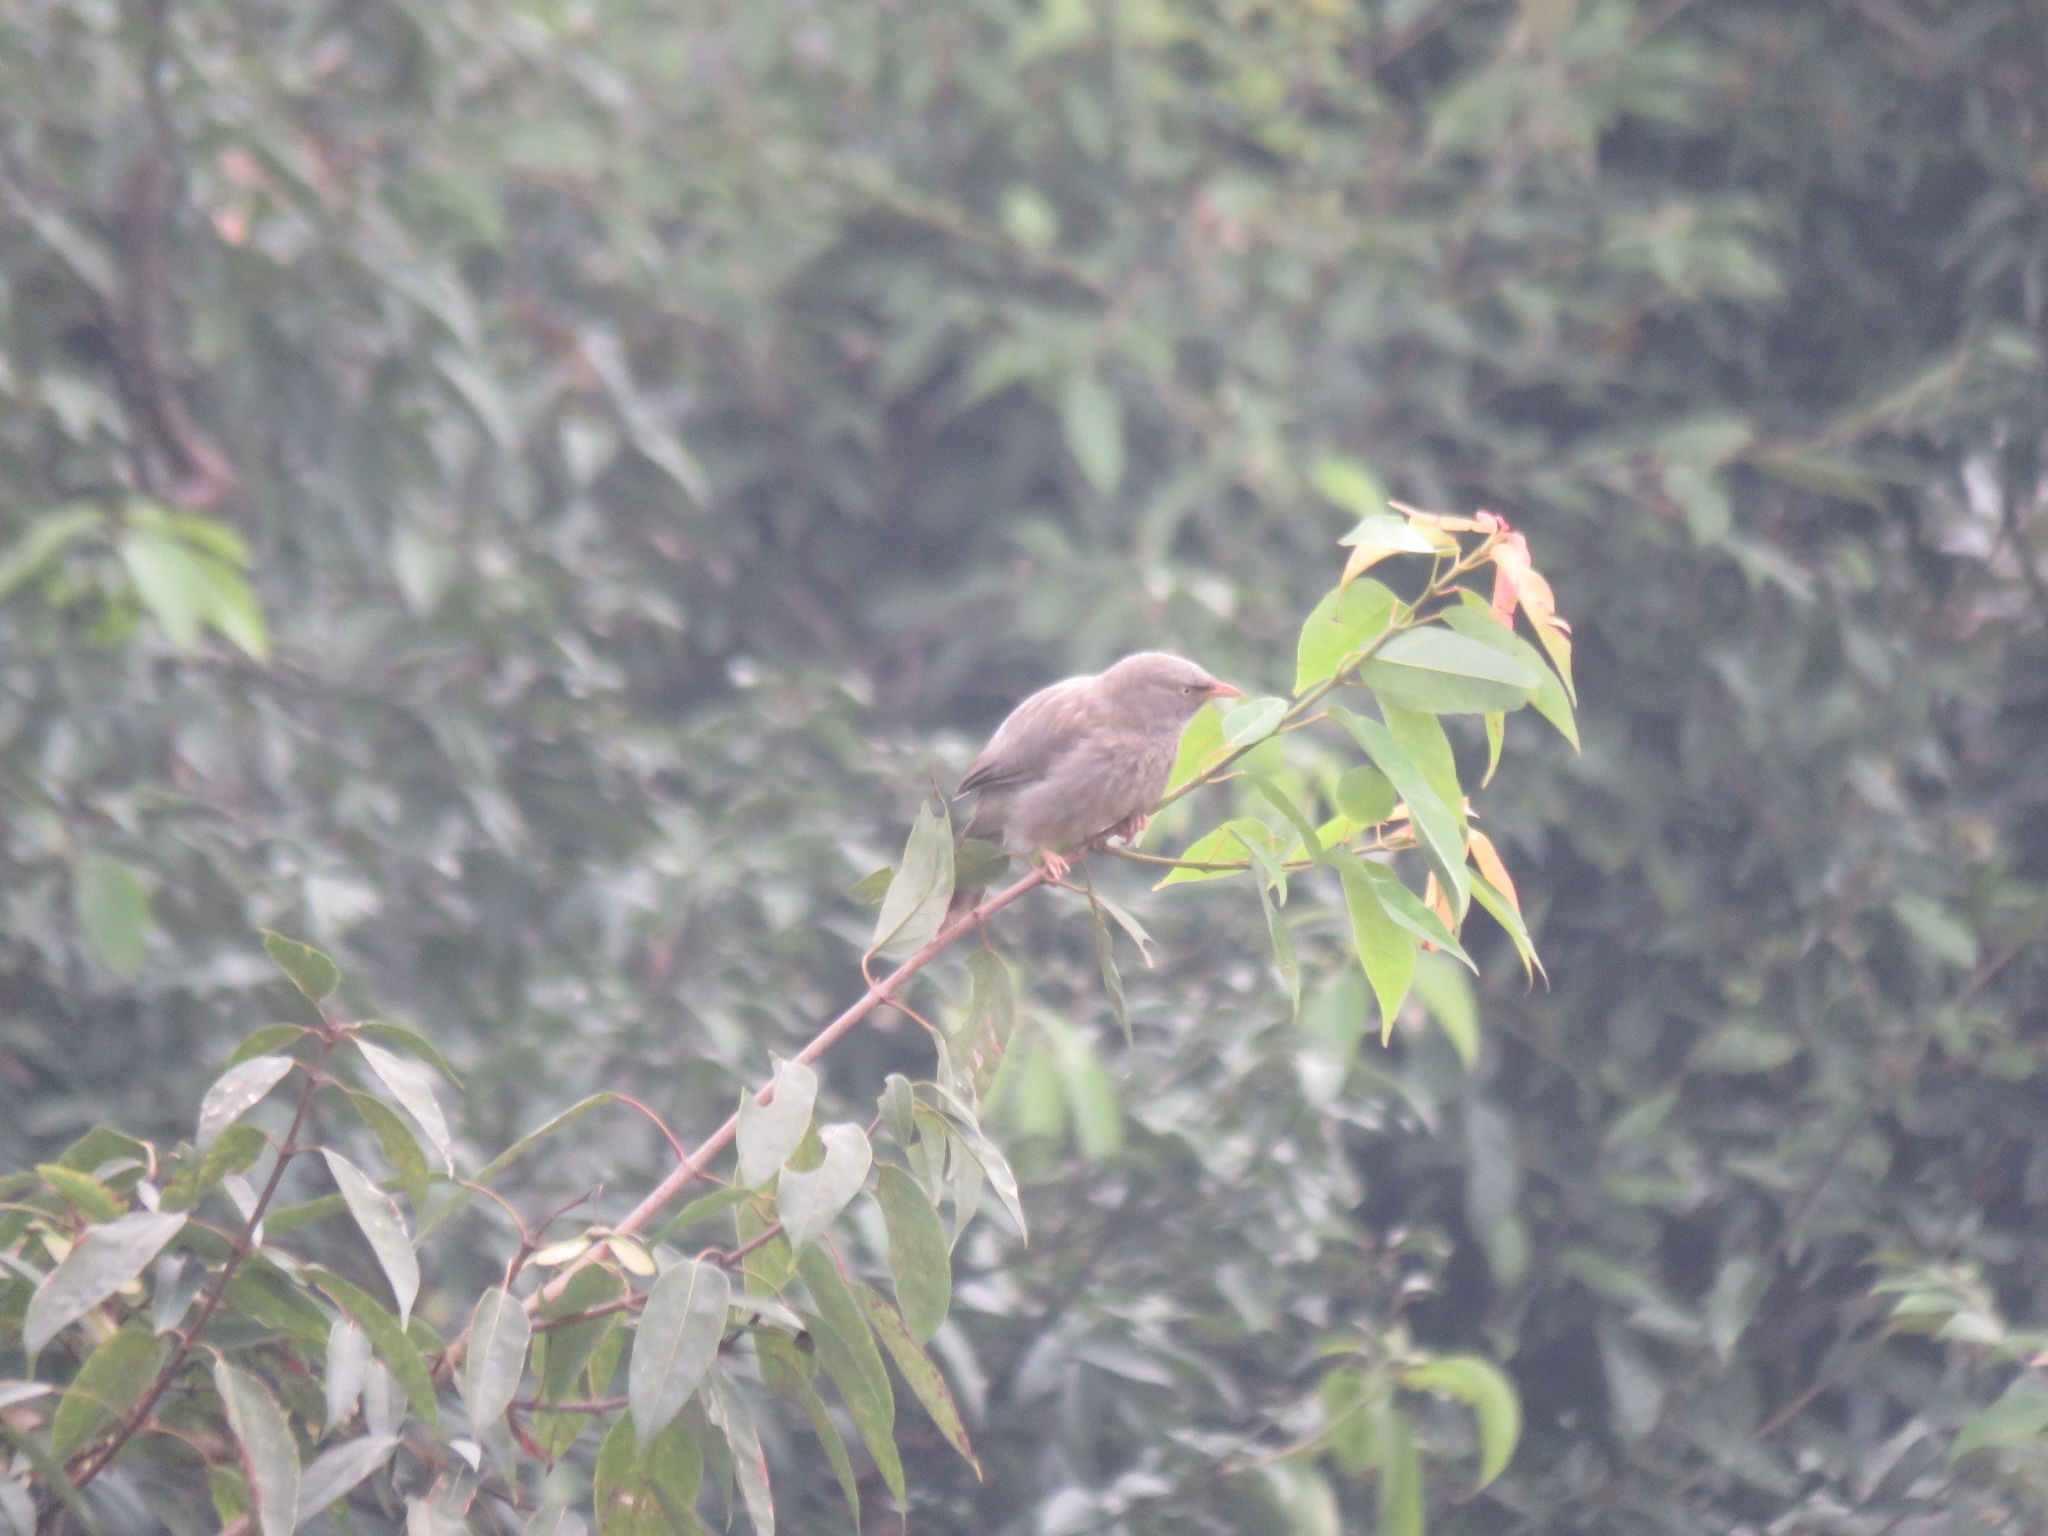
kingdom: Animalia
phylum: Chordata
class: Aves
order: Passeriformes
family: Leiothrichidae
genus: Turdoides
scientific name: Turdoides striata
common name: Jungle babbler
